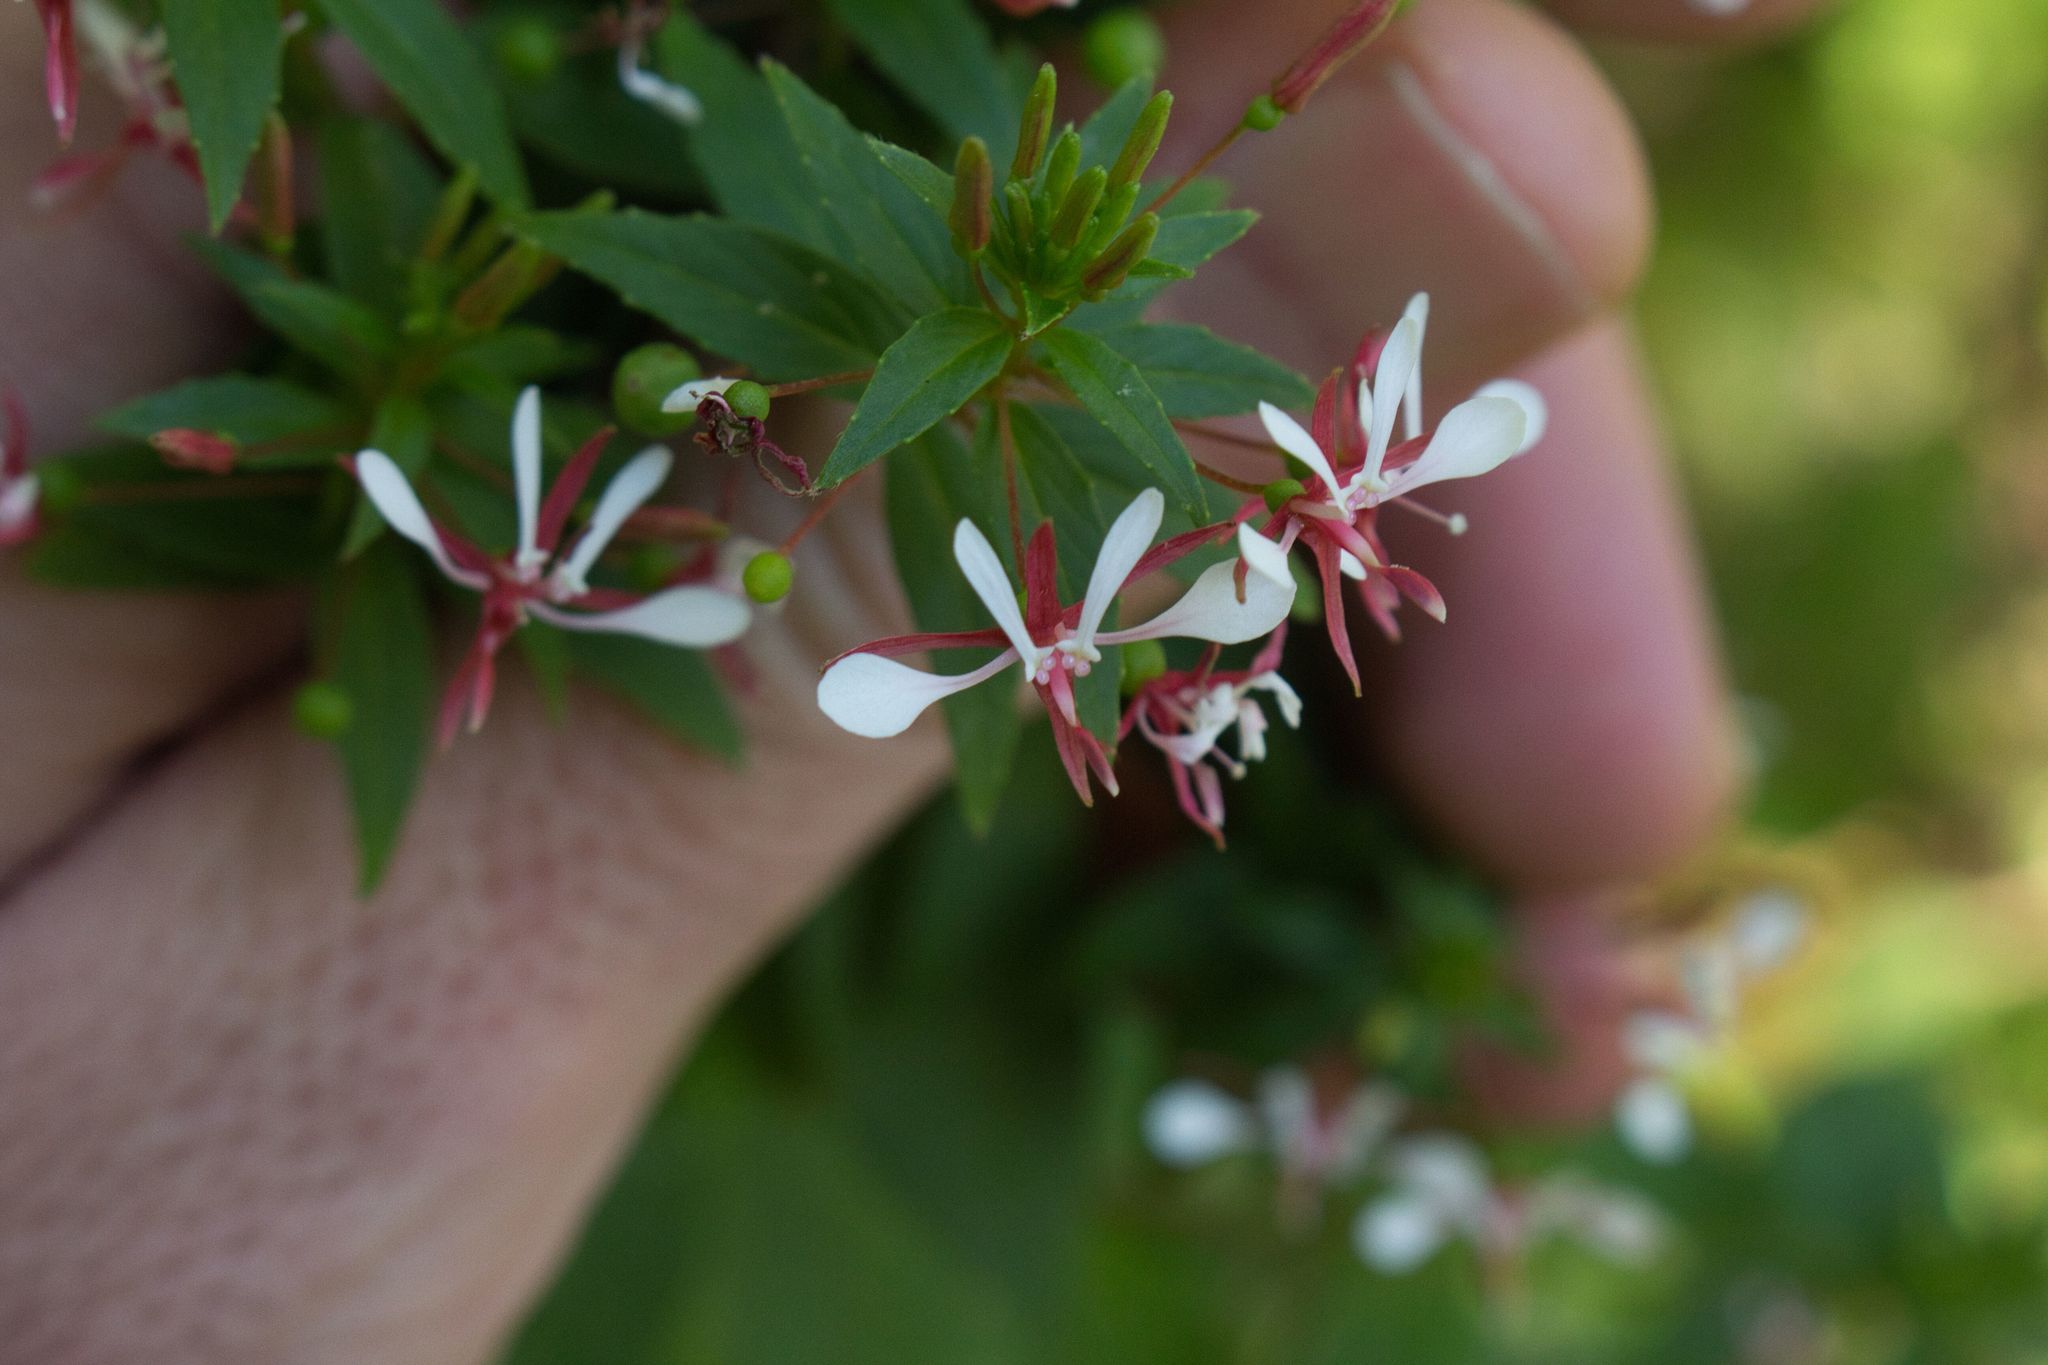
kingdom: Plantae
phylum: Tracheophyta
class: Magnoliopsida
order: Myrtales
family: Onagraceae
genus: Lopezia
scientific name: Lopezia miniata
